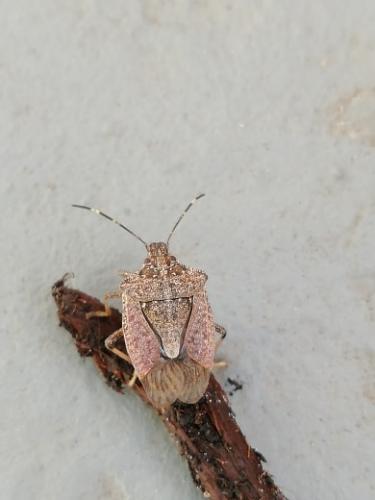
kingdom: Animalia
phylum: Arthropoda
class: Insecta
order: Hemiptera
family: Pentatomidae
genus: Halyomorpha
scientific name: Halyomorpha halys
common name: Brown marmorated stink bug
